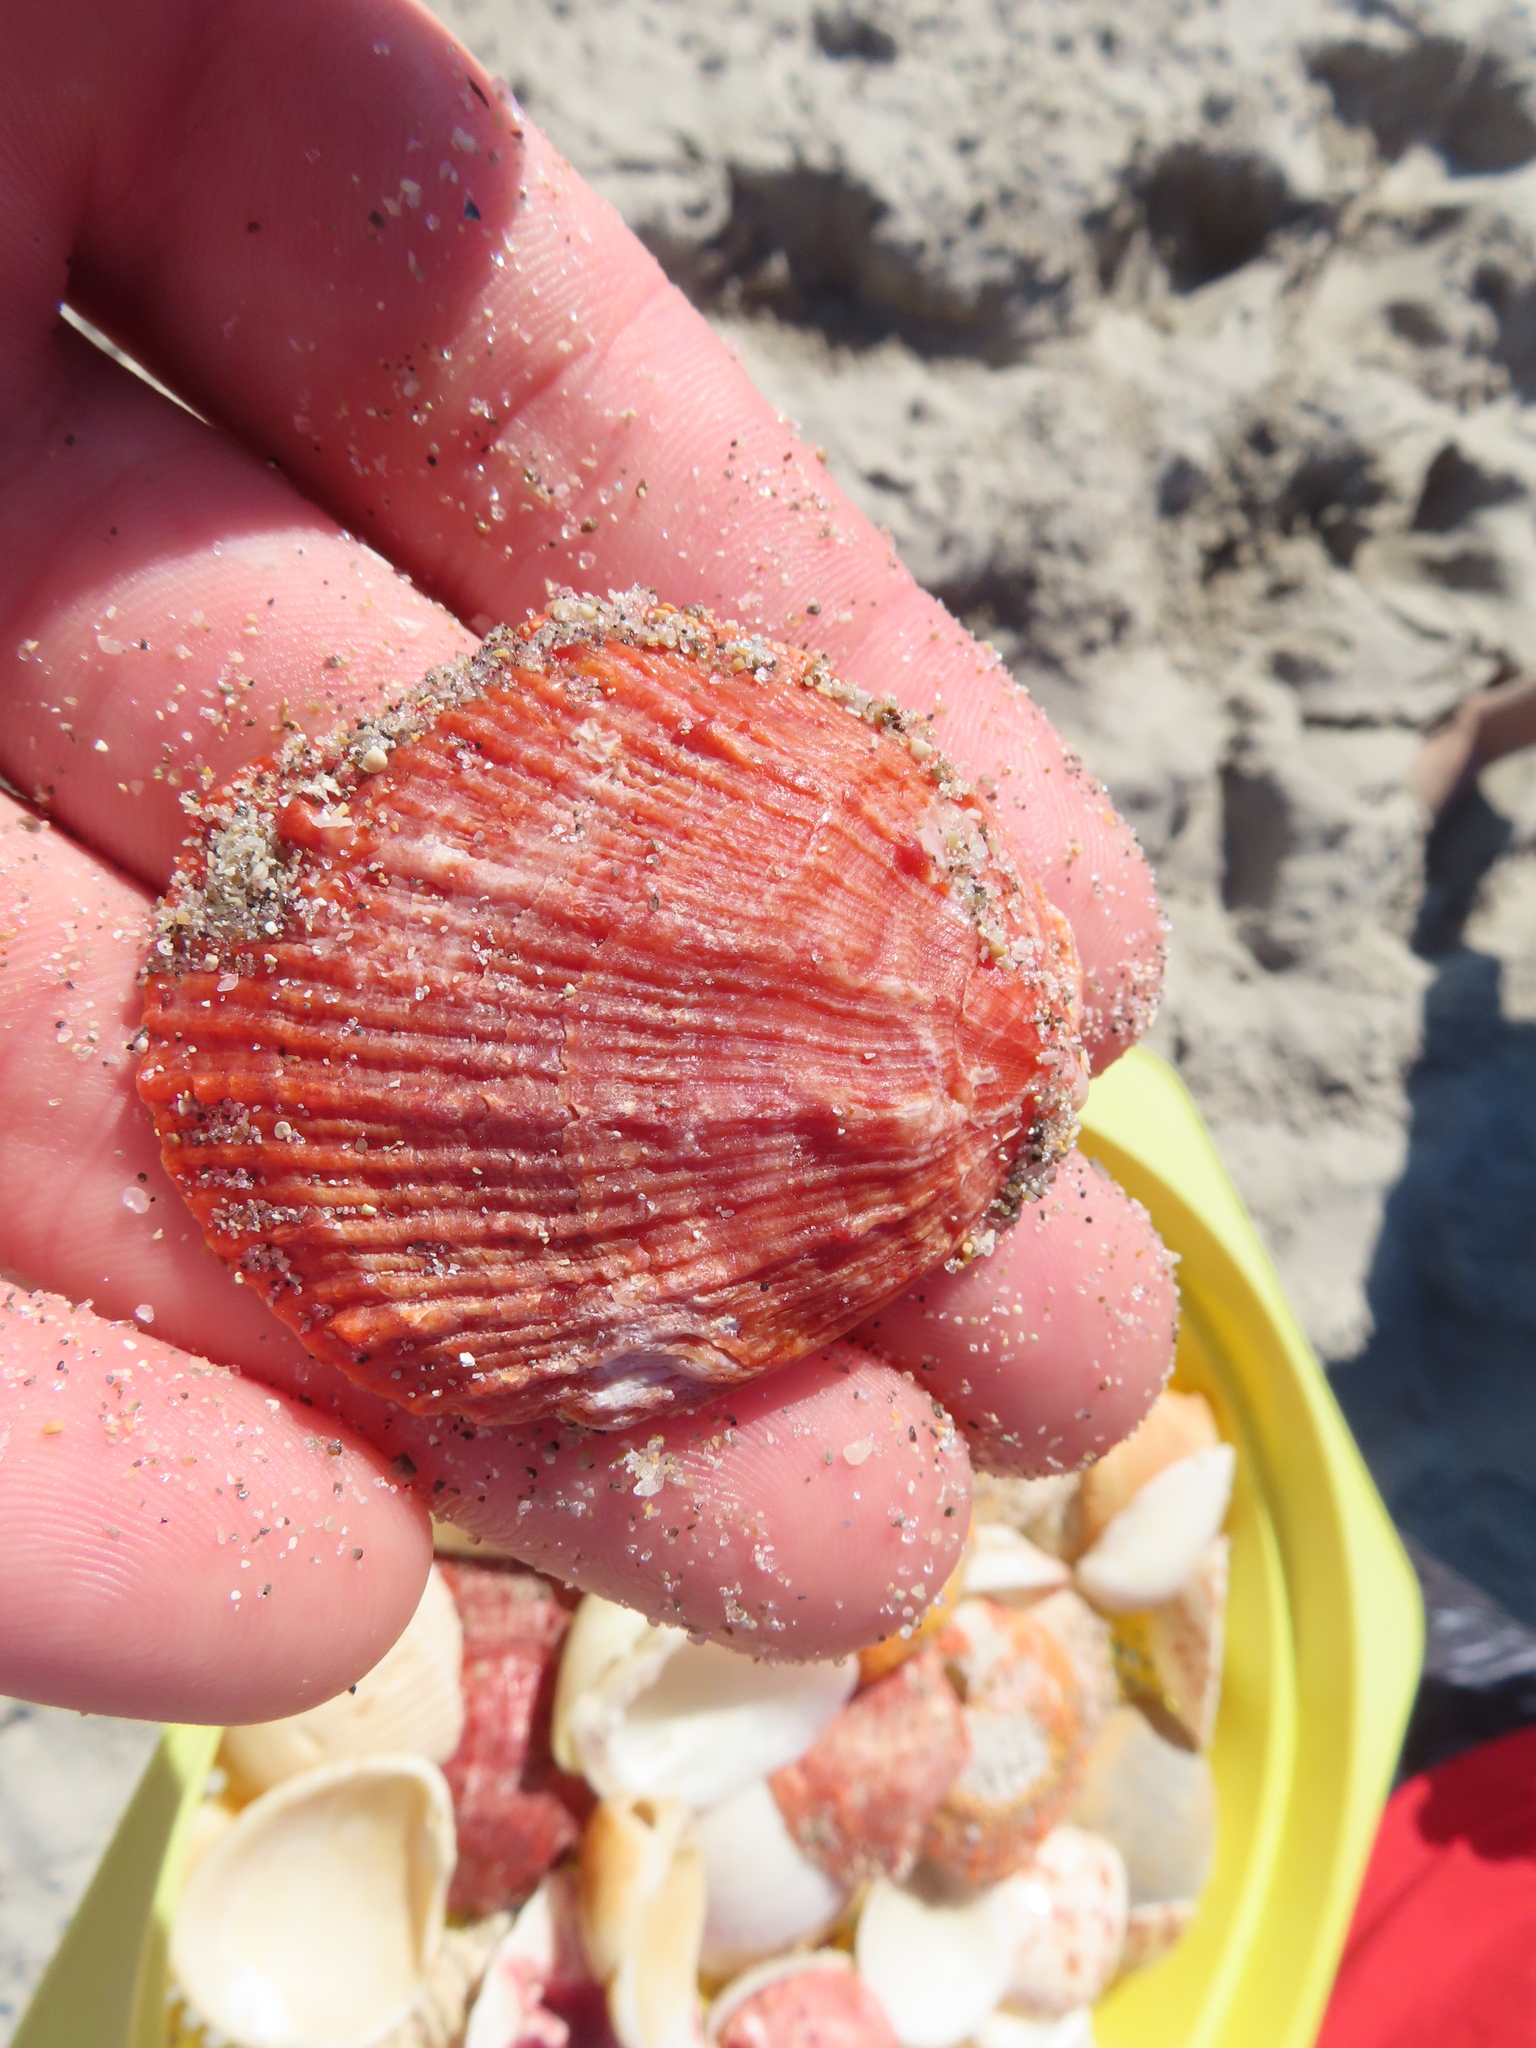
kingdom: Animalia
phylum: Mollusca
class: Bivalvia
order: Pectinida
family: Spondylidae
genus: Spondylus
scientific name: Spondylus tenuis
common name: Digitate thorny oyster
